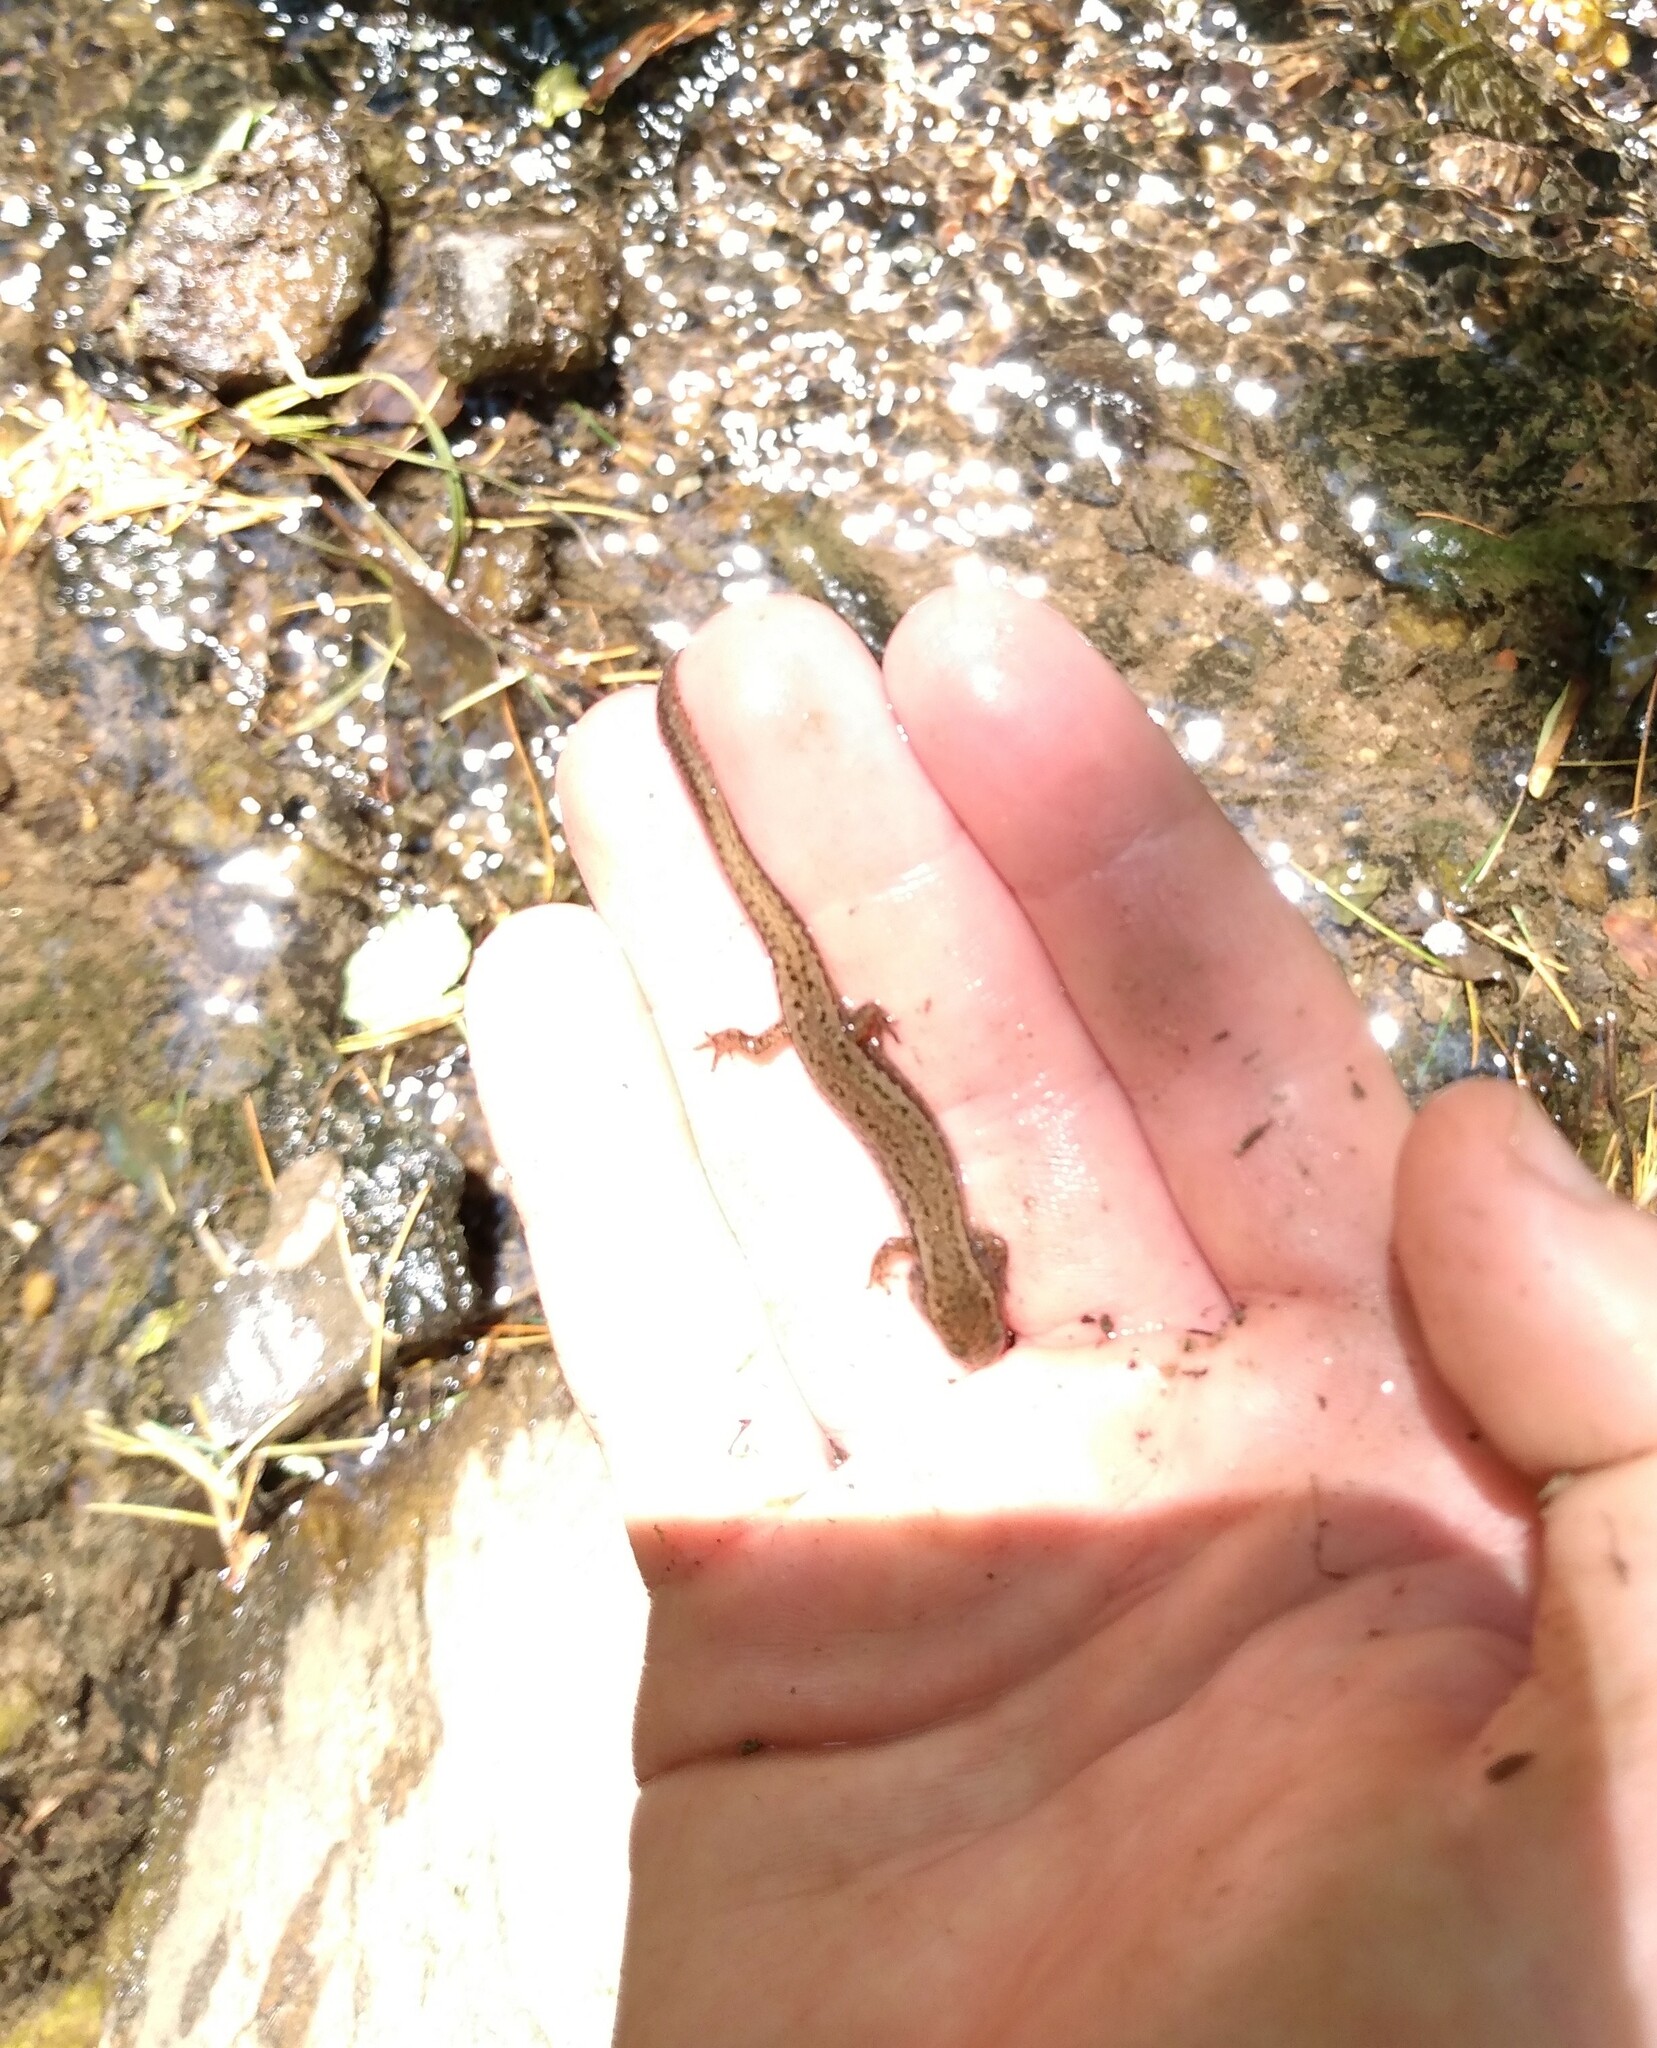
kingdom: Animalia
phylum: Chordata
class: Amphibia
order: Caudata
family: Plethodontidae
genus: Eurycea
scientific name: Eurycea cirrigera
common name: Southern two-lined salamander
